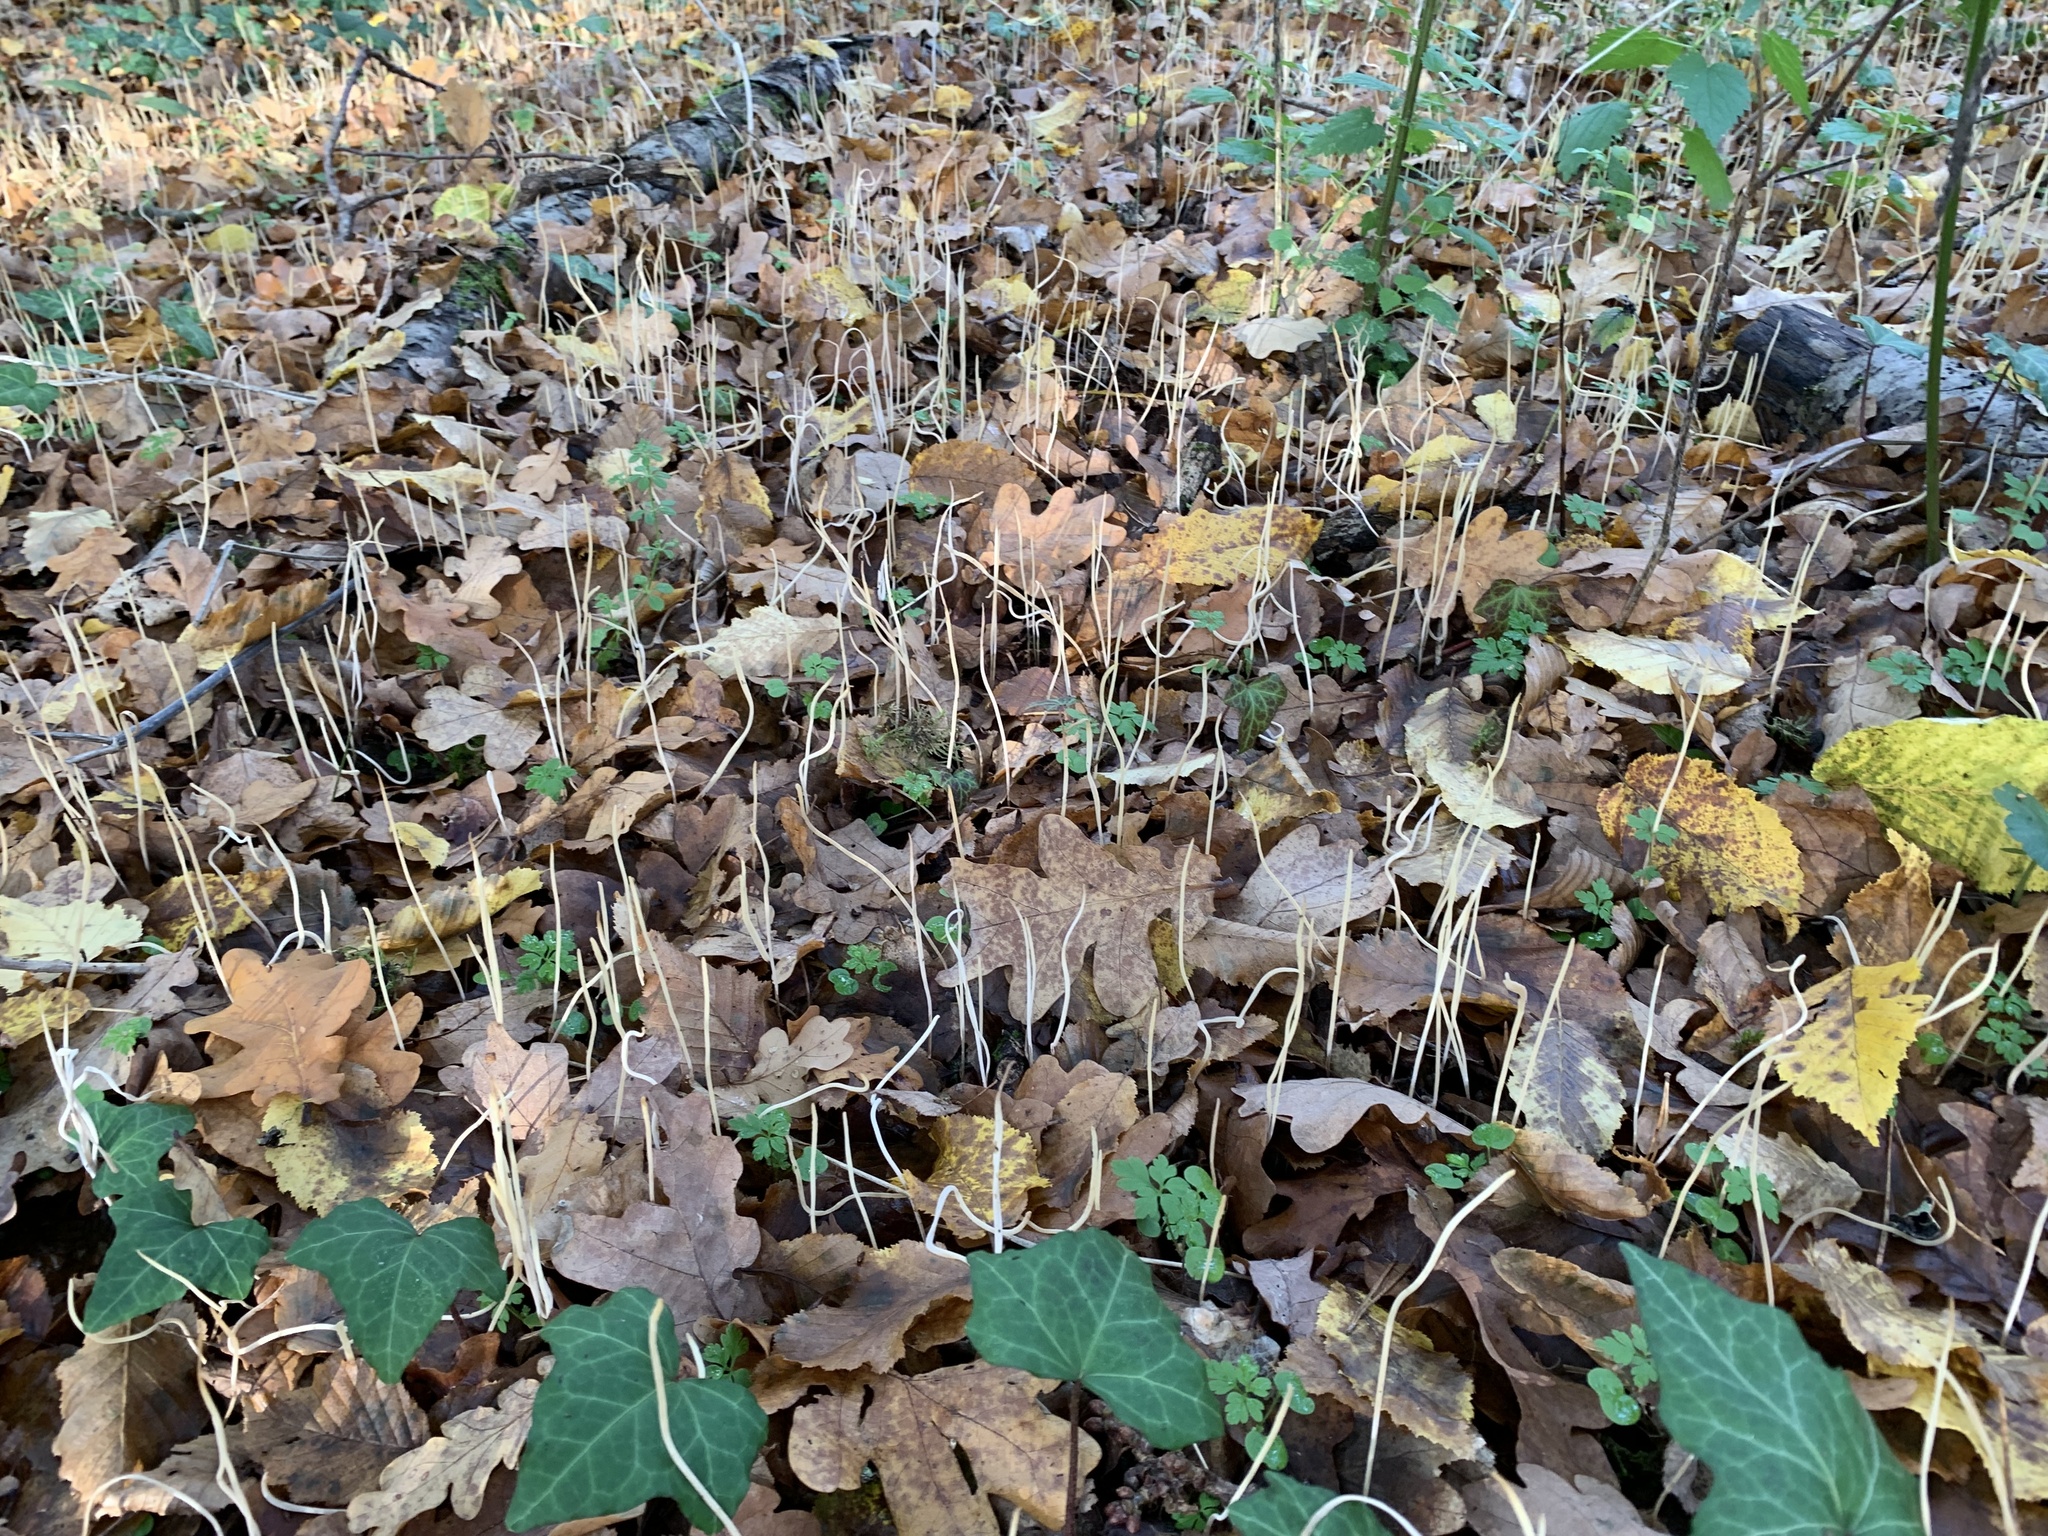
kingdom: Fungi
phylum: Basidiomycota
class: Agaricomycetes
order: Agaricales
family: Typhulaceae
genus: Typhula
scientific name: Typhula juncea
